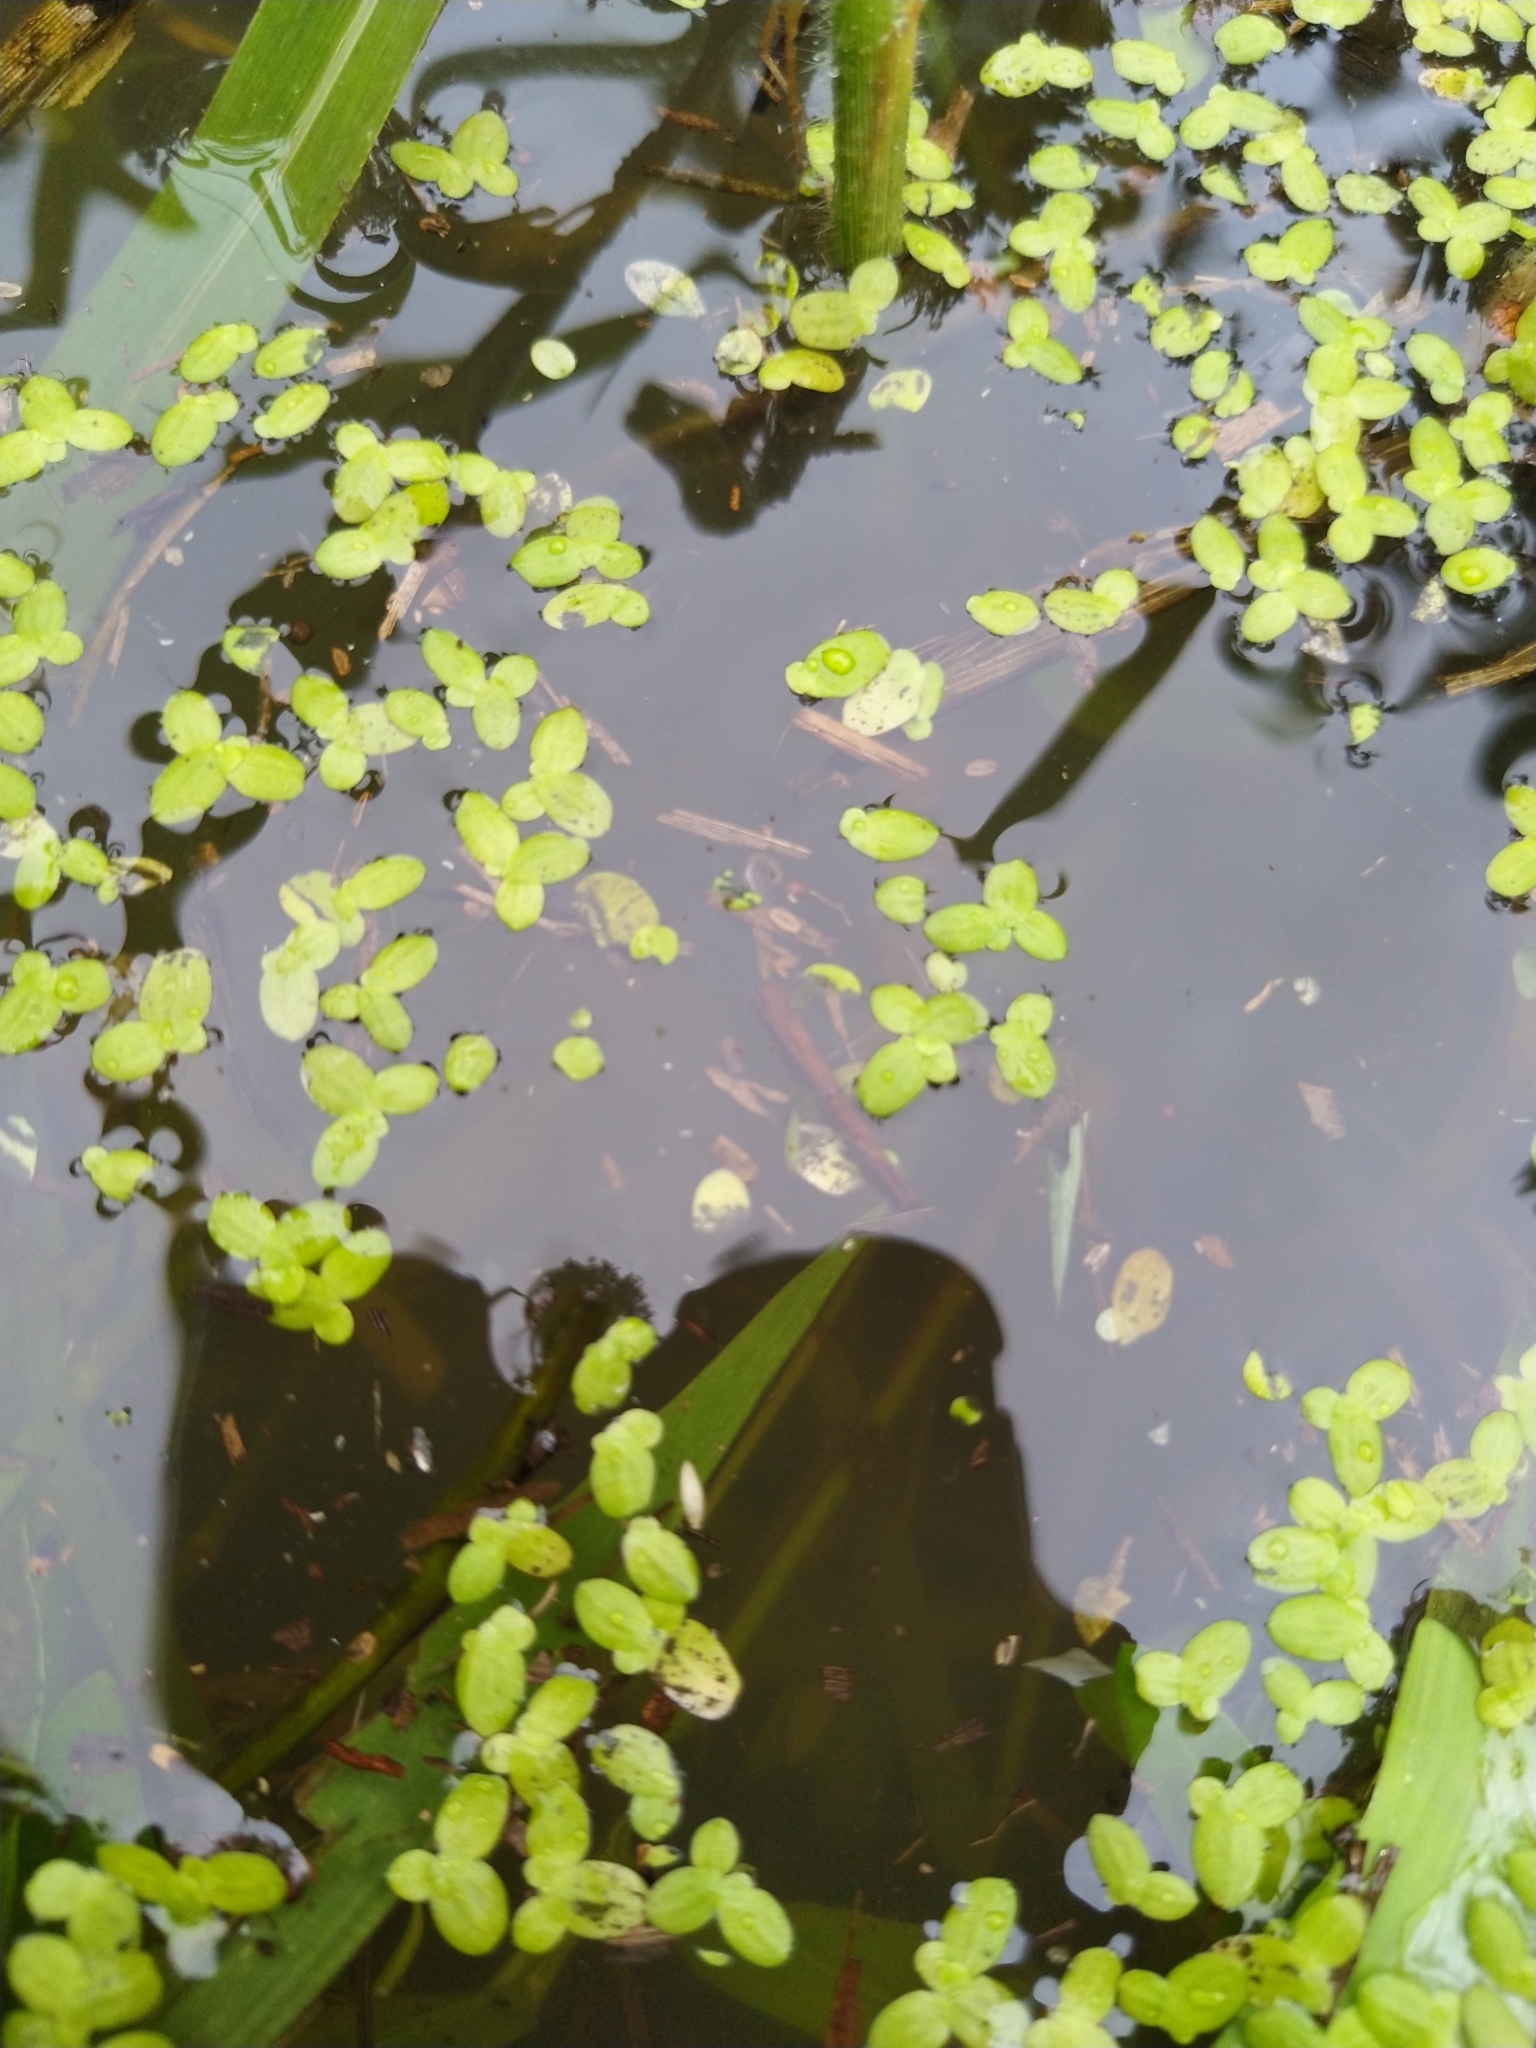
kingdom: Plantae
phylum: Tracheophyta
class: Liliopsida
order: Alismatales
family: Araceae
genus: Lemna
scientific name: Lemna minor
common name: Common duckweed
